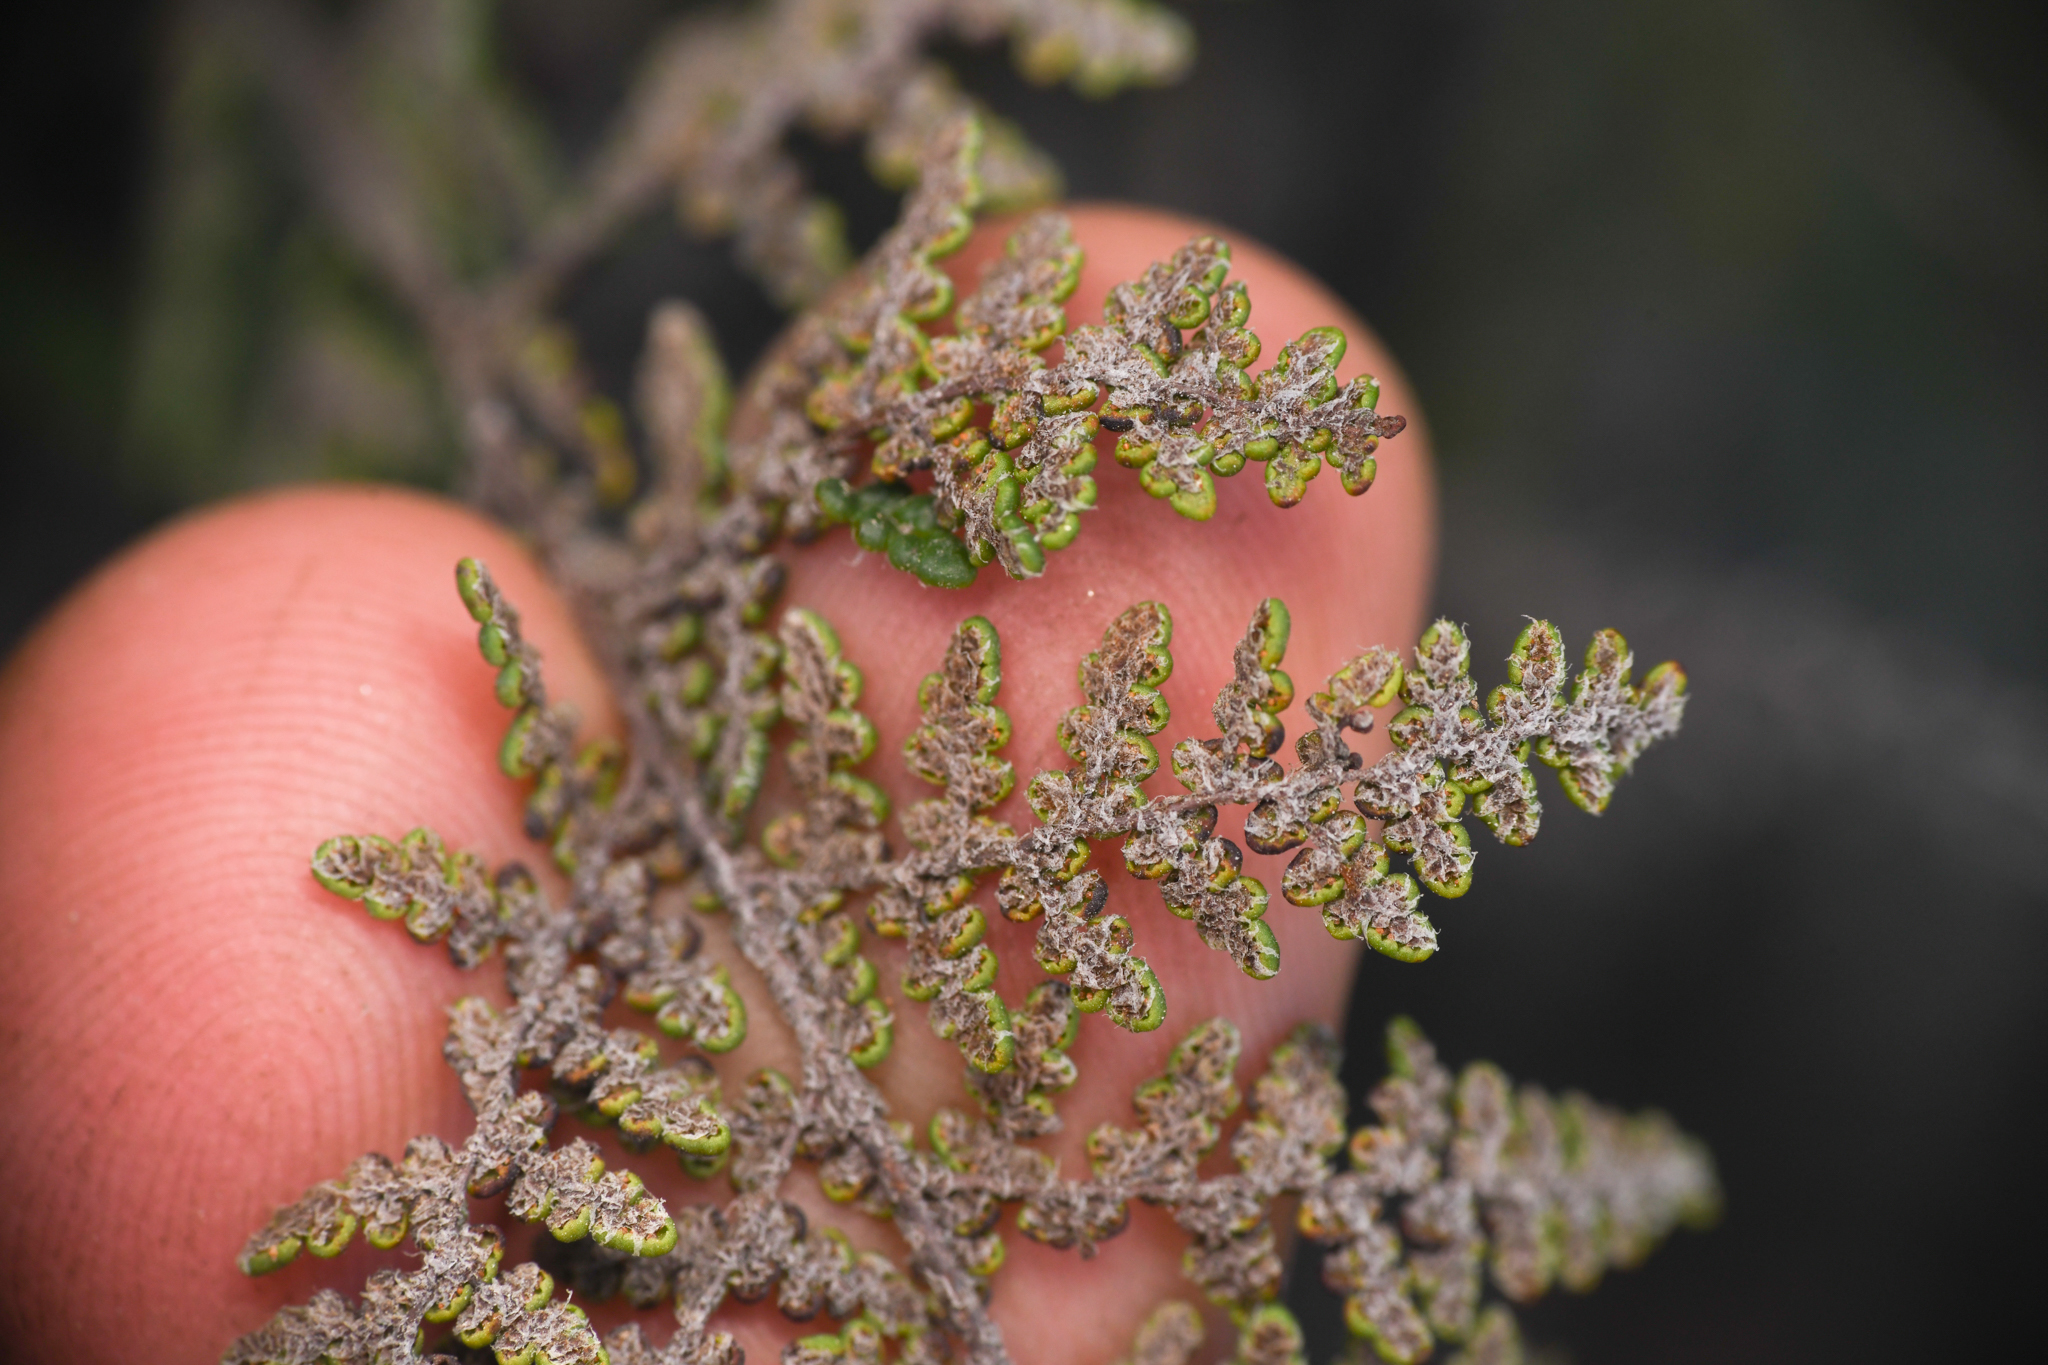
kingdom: Plantae
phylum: Tracheophyta
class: Polypodiopsida
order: Polypodiales
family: Pteridaceae
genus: Myriopteris
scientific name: Myriopteris clevelandii
